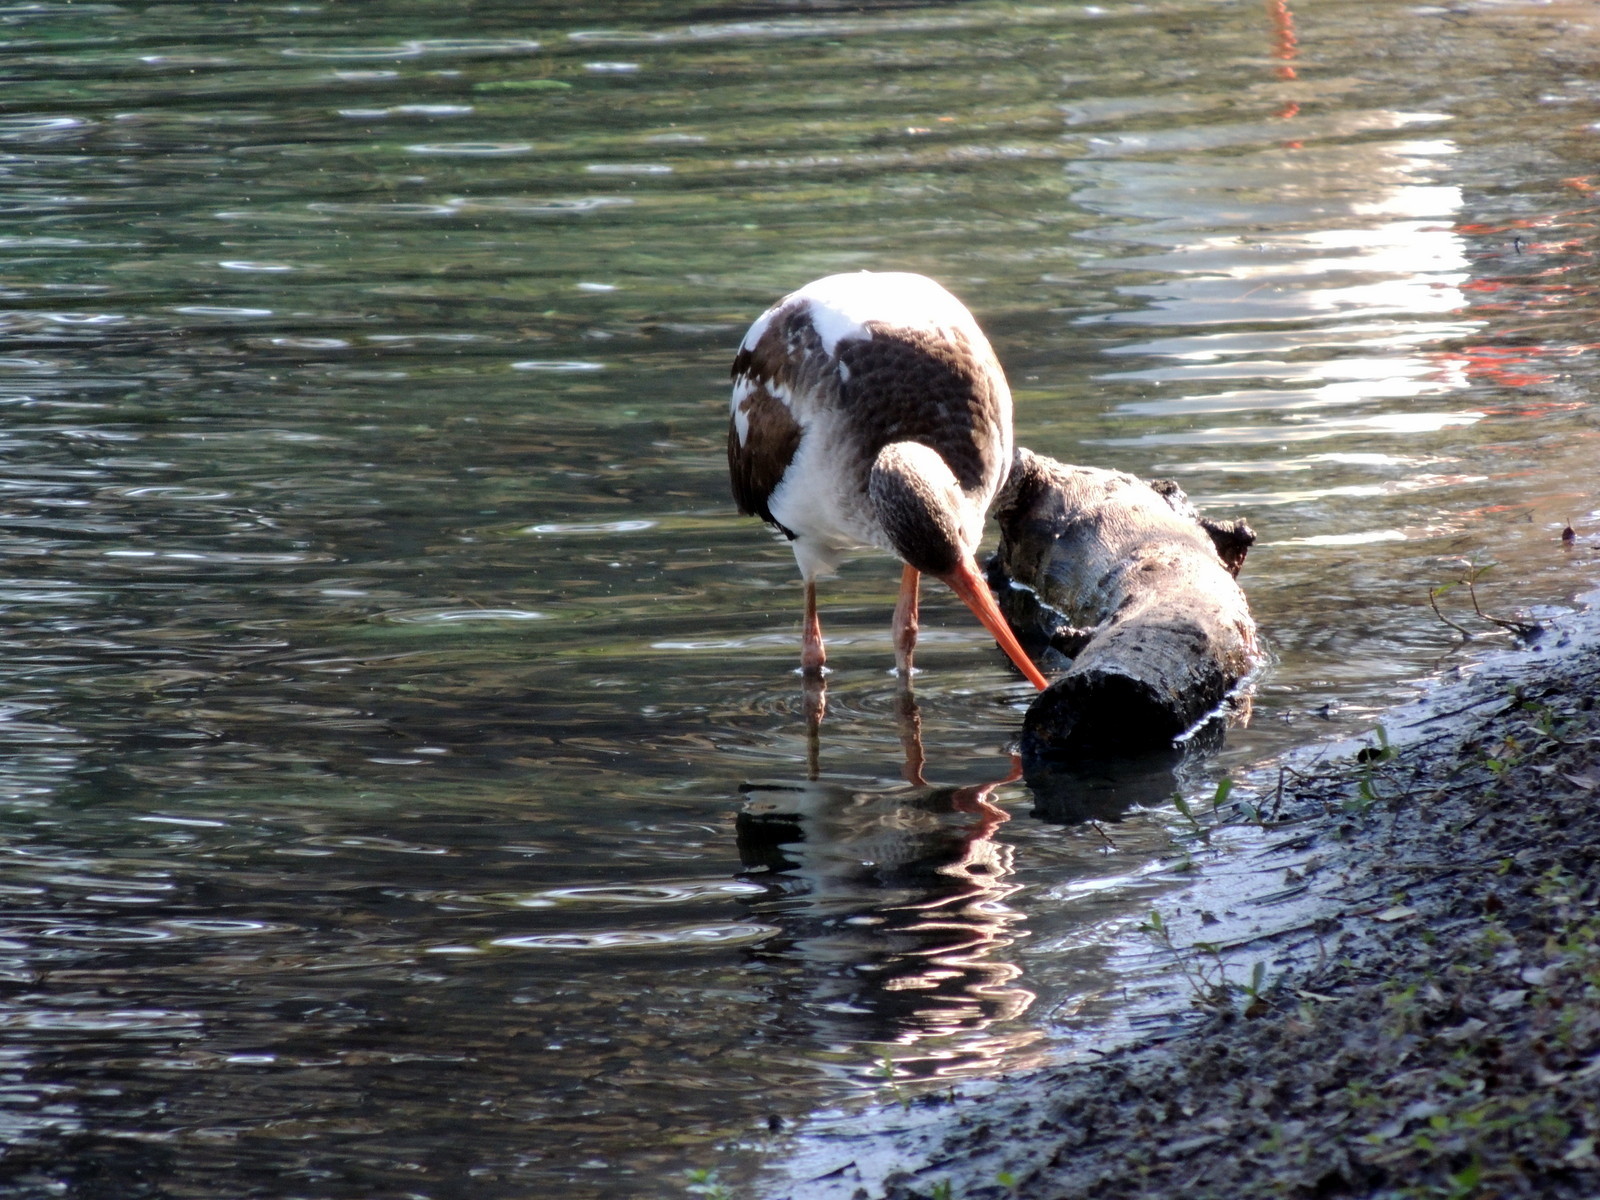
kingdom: Animalia
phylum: Chordata
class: Aves
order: Pelecaniformes
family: Threskiornithidae
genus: Eudocimus
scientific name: Eudocimus albus
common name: White ibis
